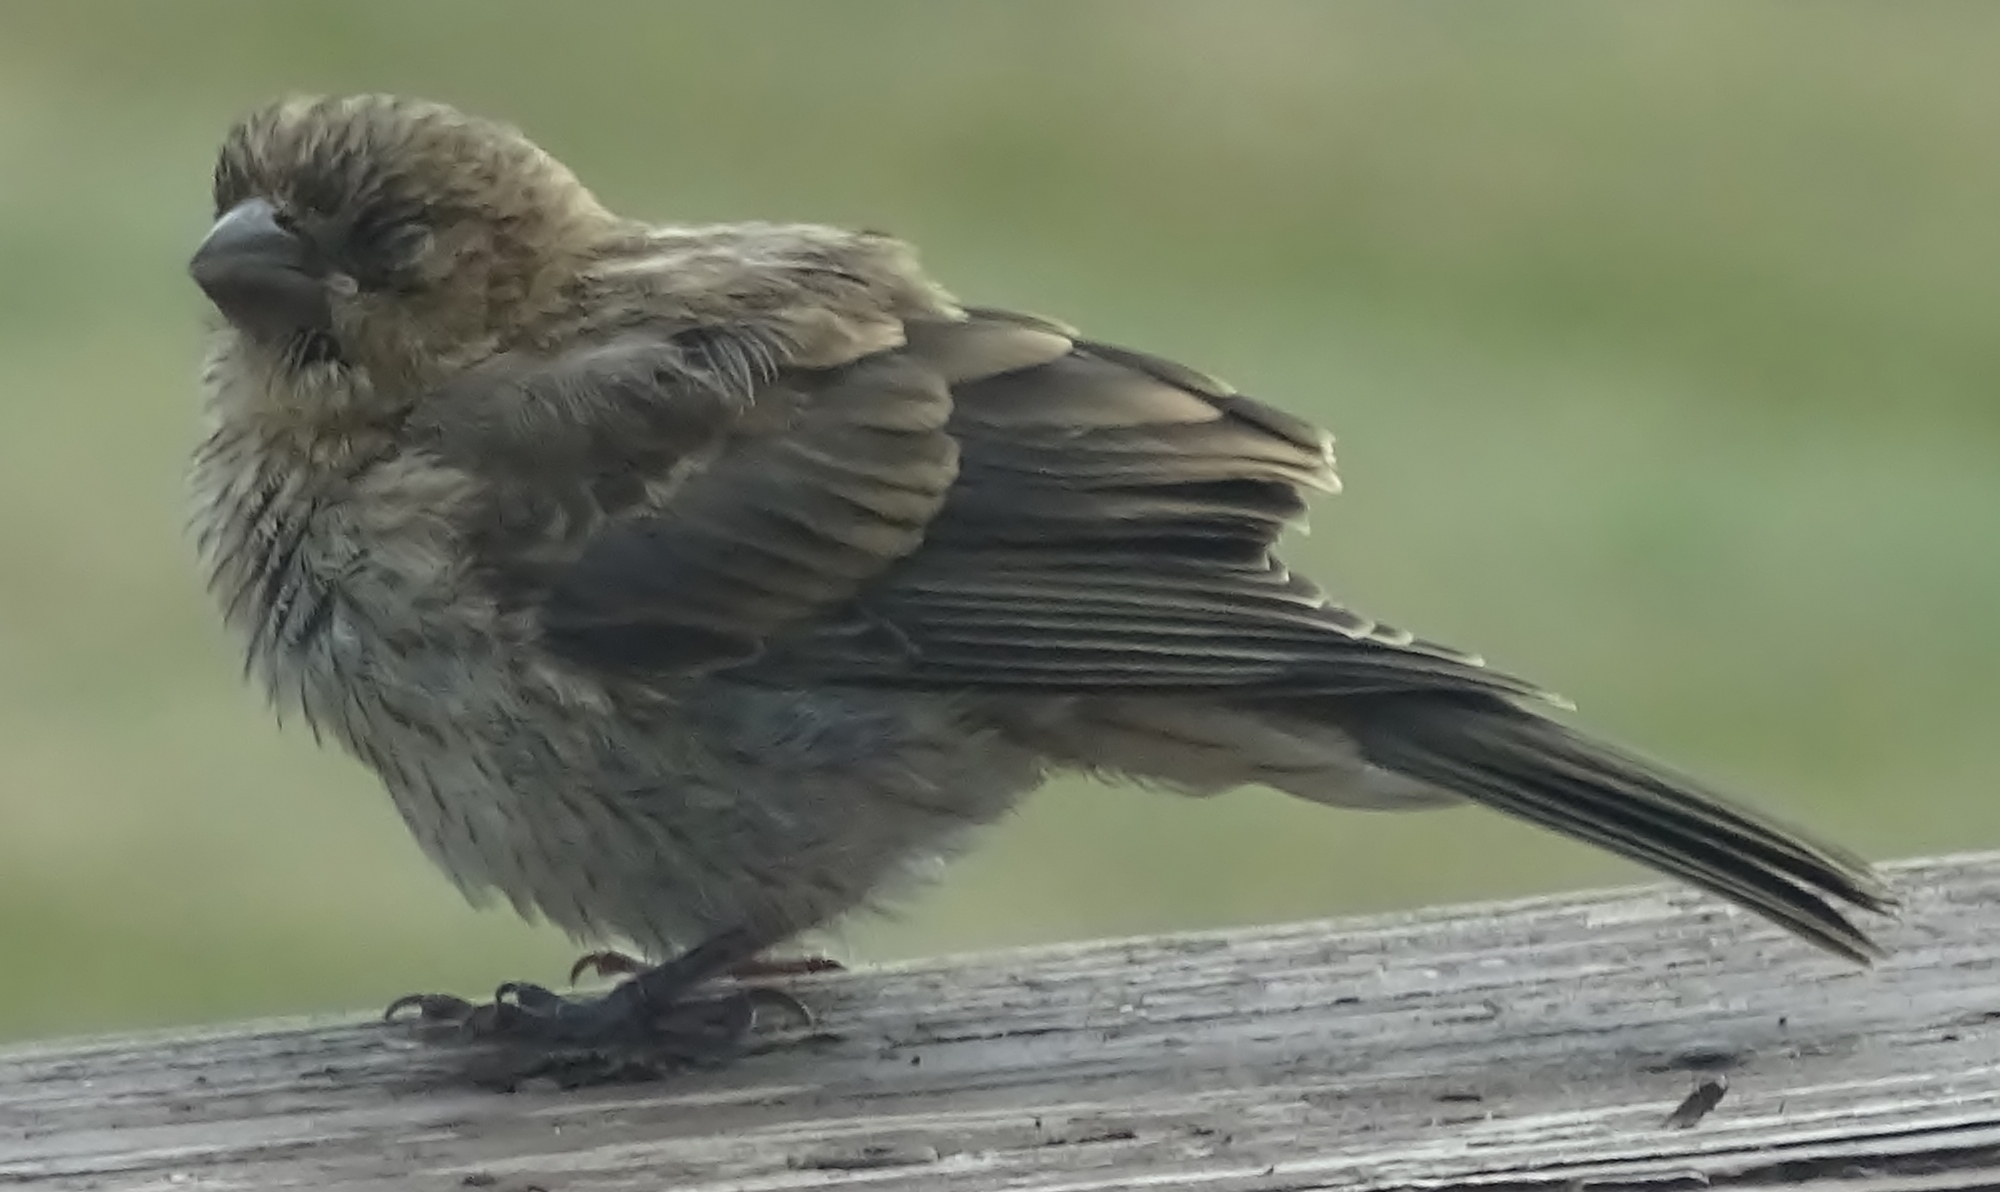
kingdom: Animalia
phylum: Chordata
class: Aves
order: Passeriformes
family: Fringillidae
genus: Haemorhous
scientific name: Haemorhous mexicanus
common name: House finch
